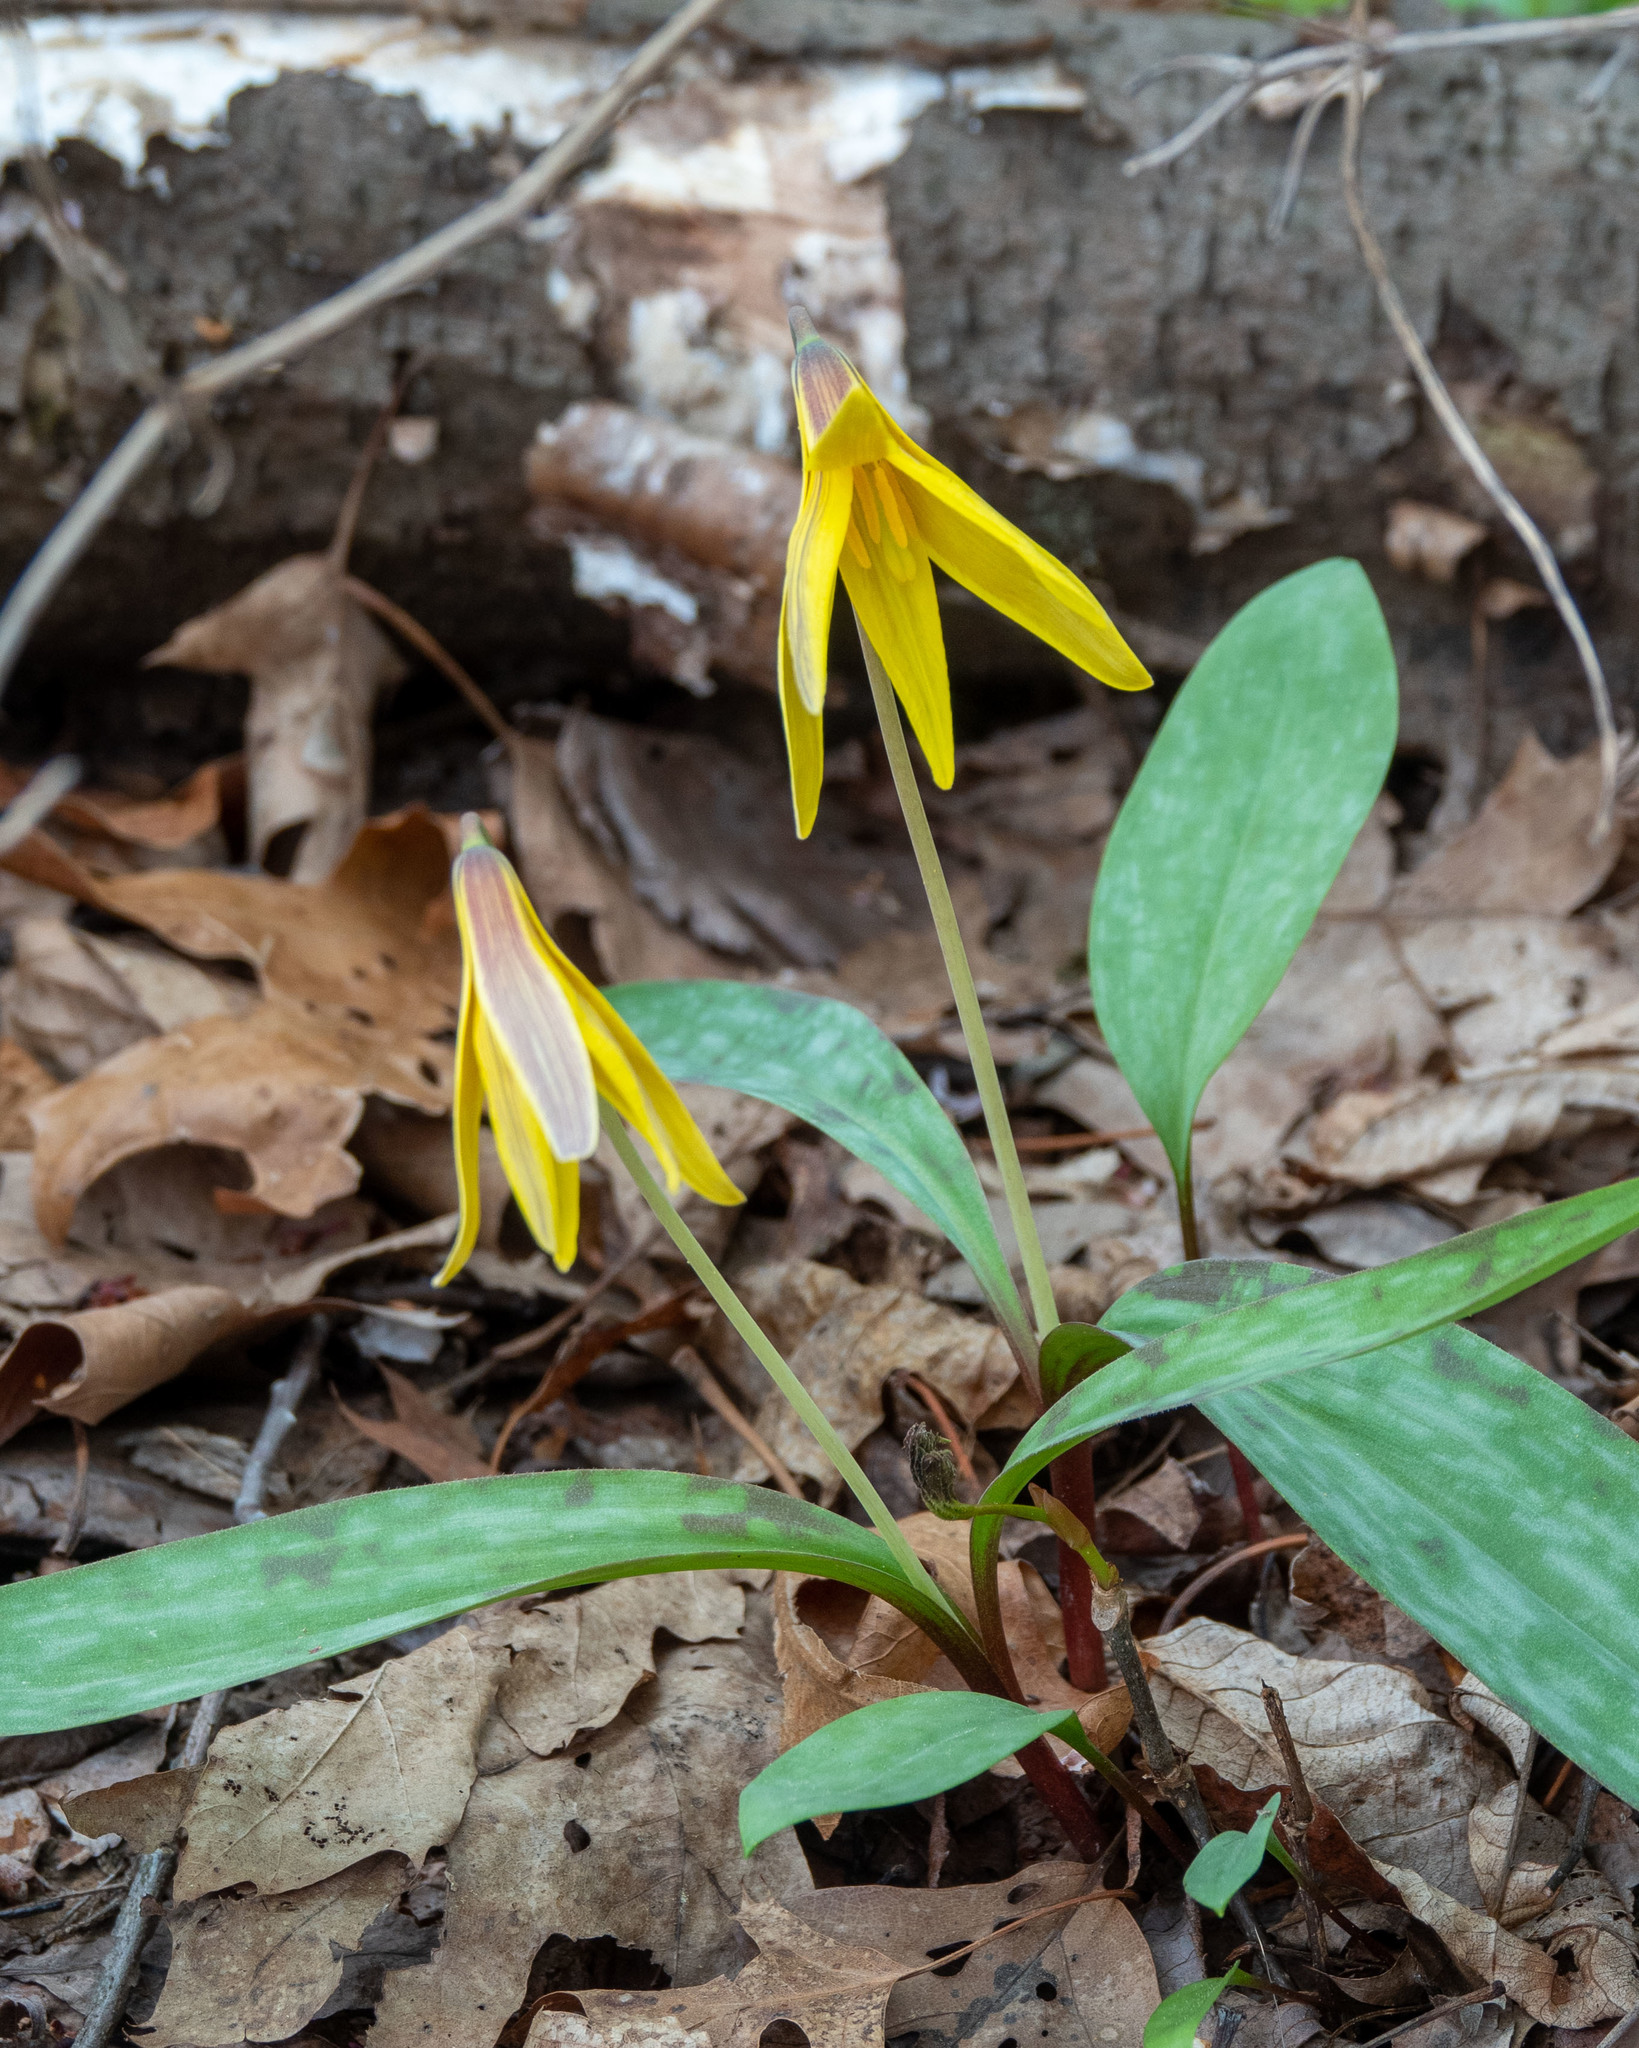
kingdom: Plantae
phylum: Tracheophyta
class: Liliopsida
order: Liliales
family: Liliaceae
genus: Erythronium
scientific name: Erythronium americanum
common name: Yellow adder's-tongue
